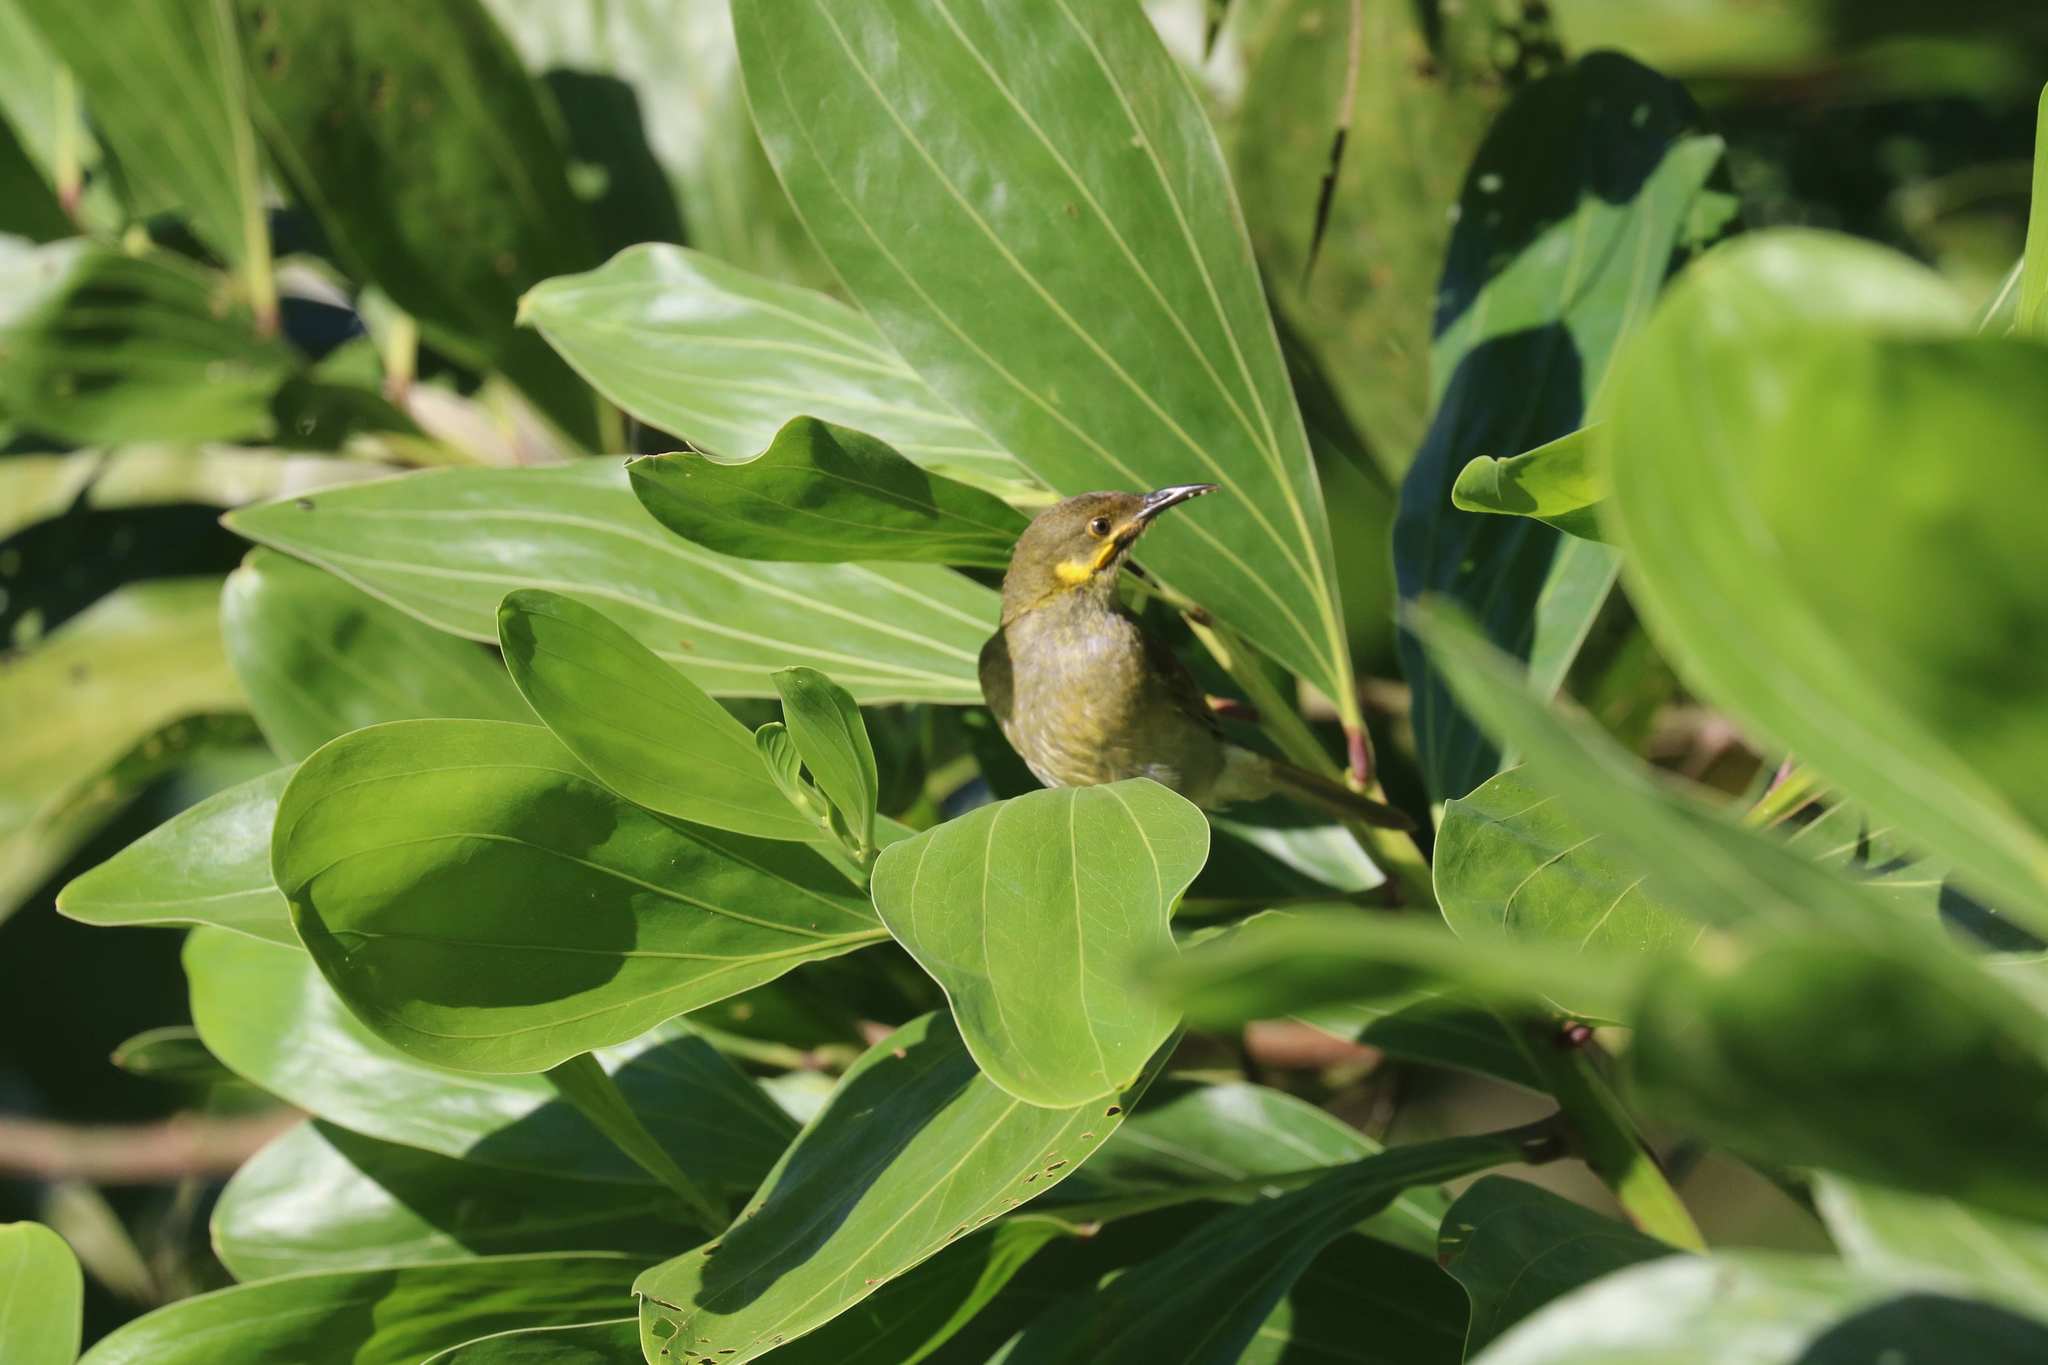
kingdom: Animalia
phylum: Chordata
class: Aves
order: Passeriformes
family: Meliphagidae
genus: Foulehaio
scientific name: Foulehaio carunculatus
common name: Eastern wattled-honeyeater
